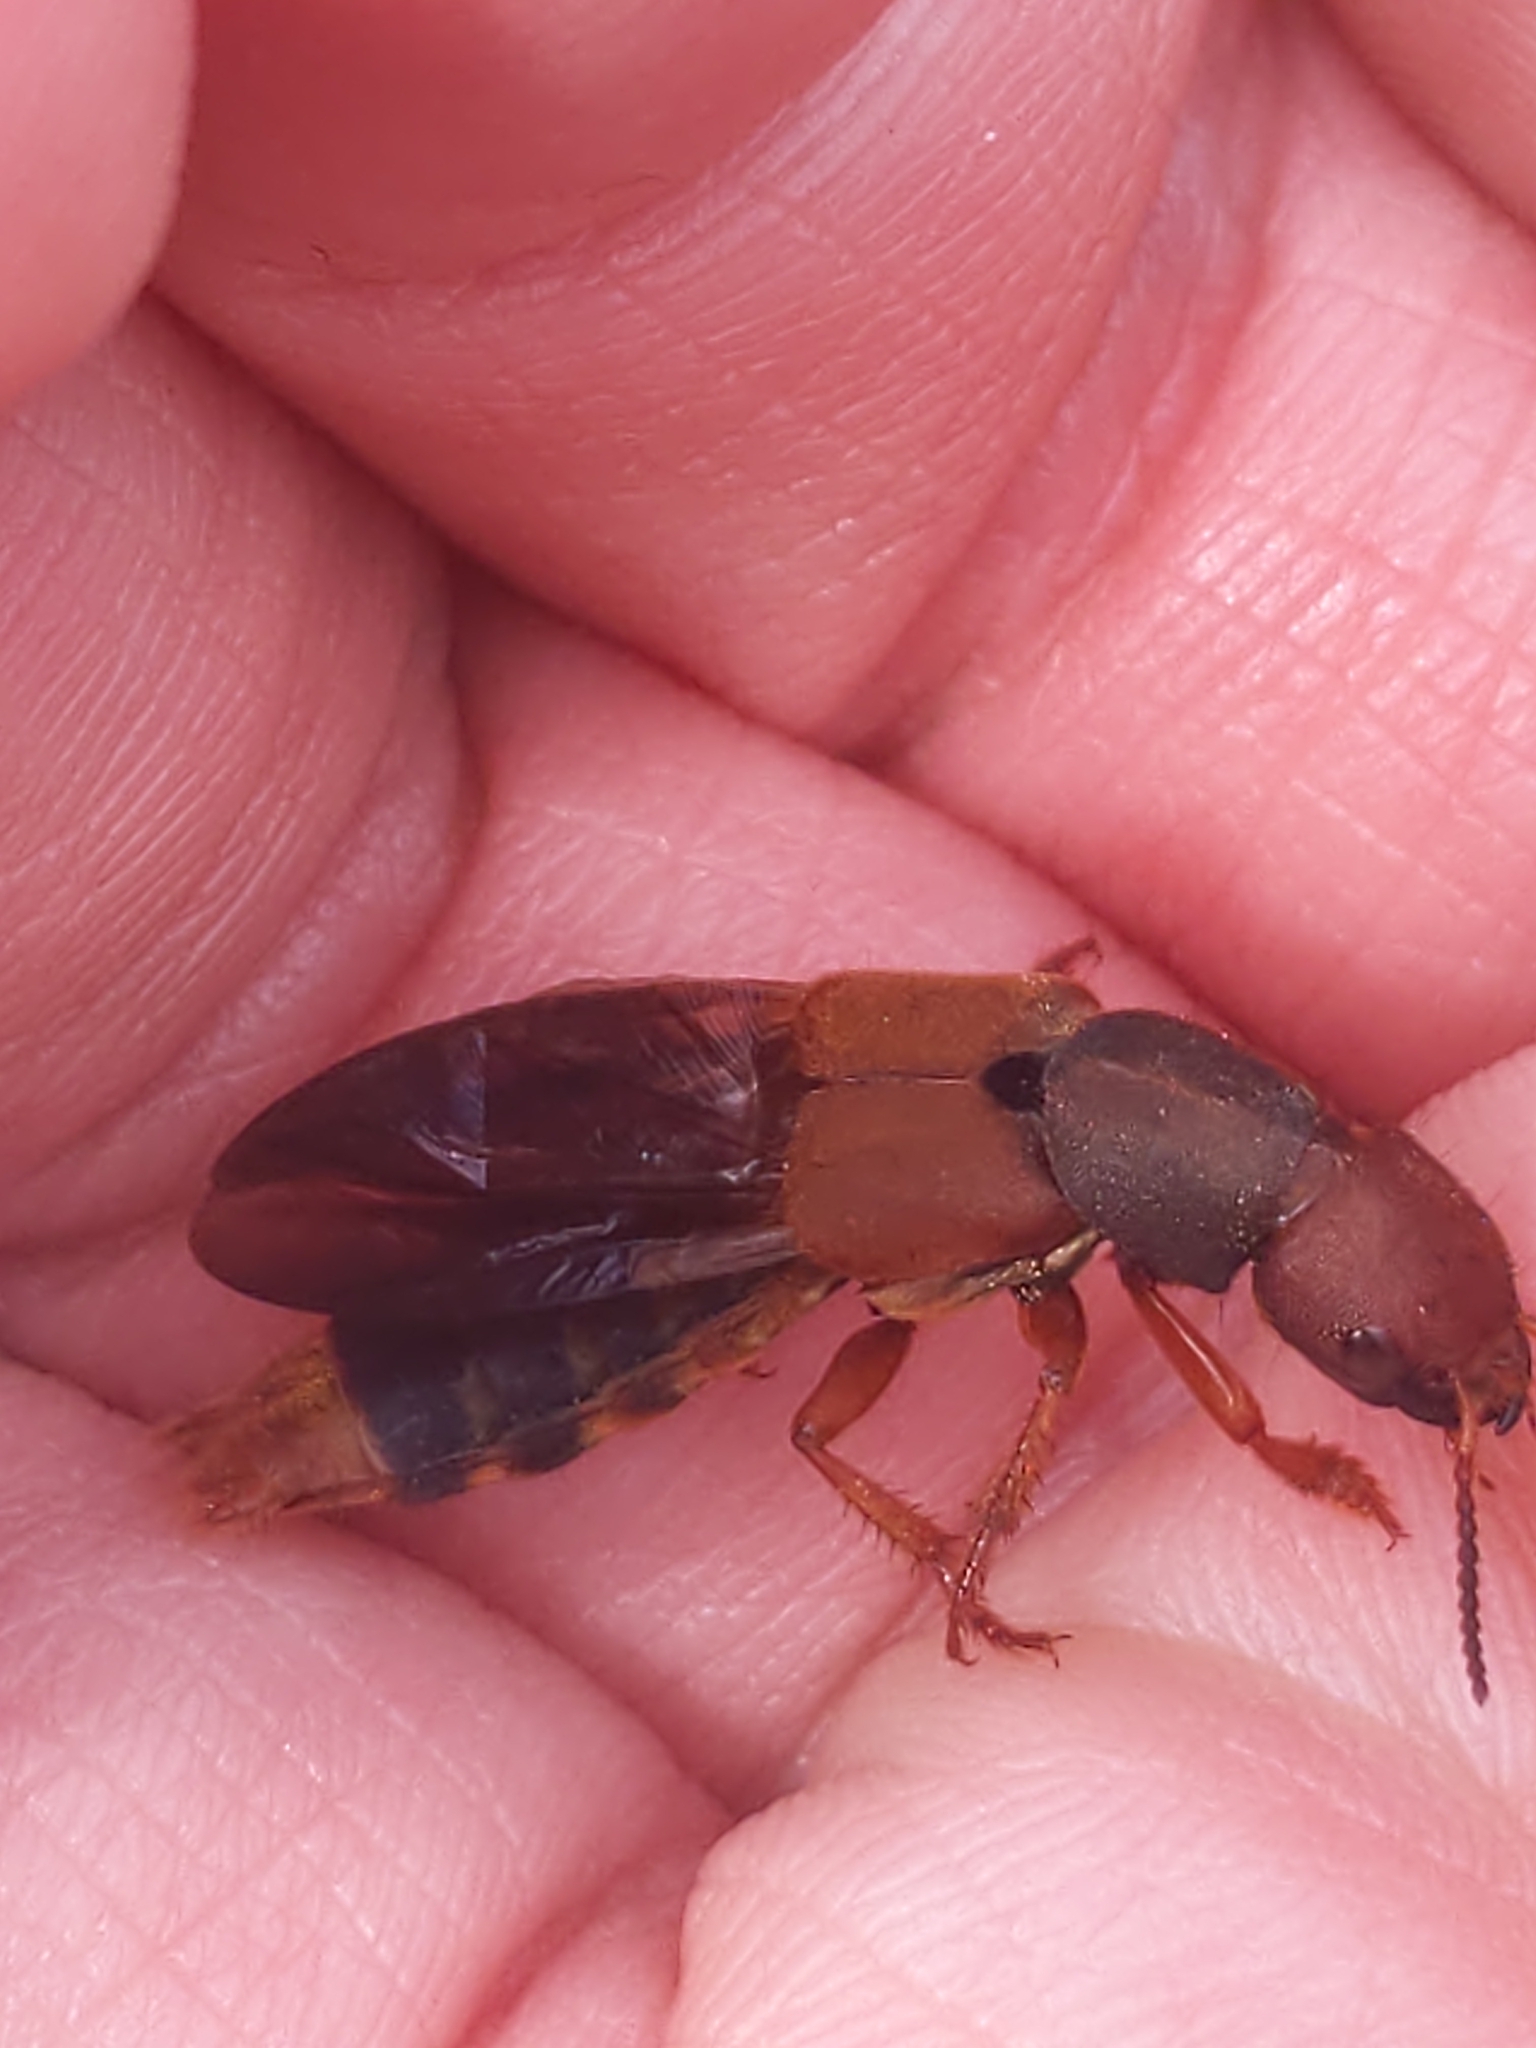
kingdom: Animalia
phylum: Arthropoda
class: Insecta
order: Coleoptera
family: Staphylinidae
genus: Platydracus
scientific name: Platydracus immaculatus
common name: Immaculate rove beetle
